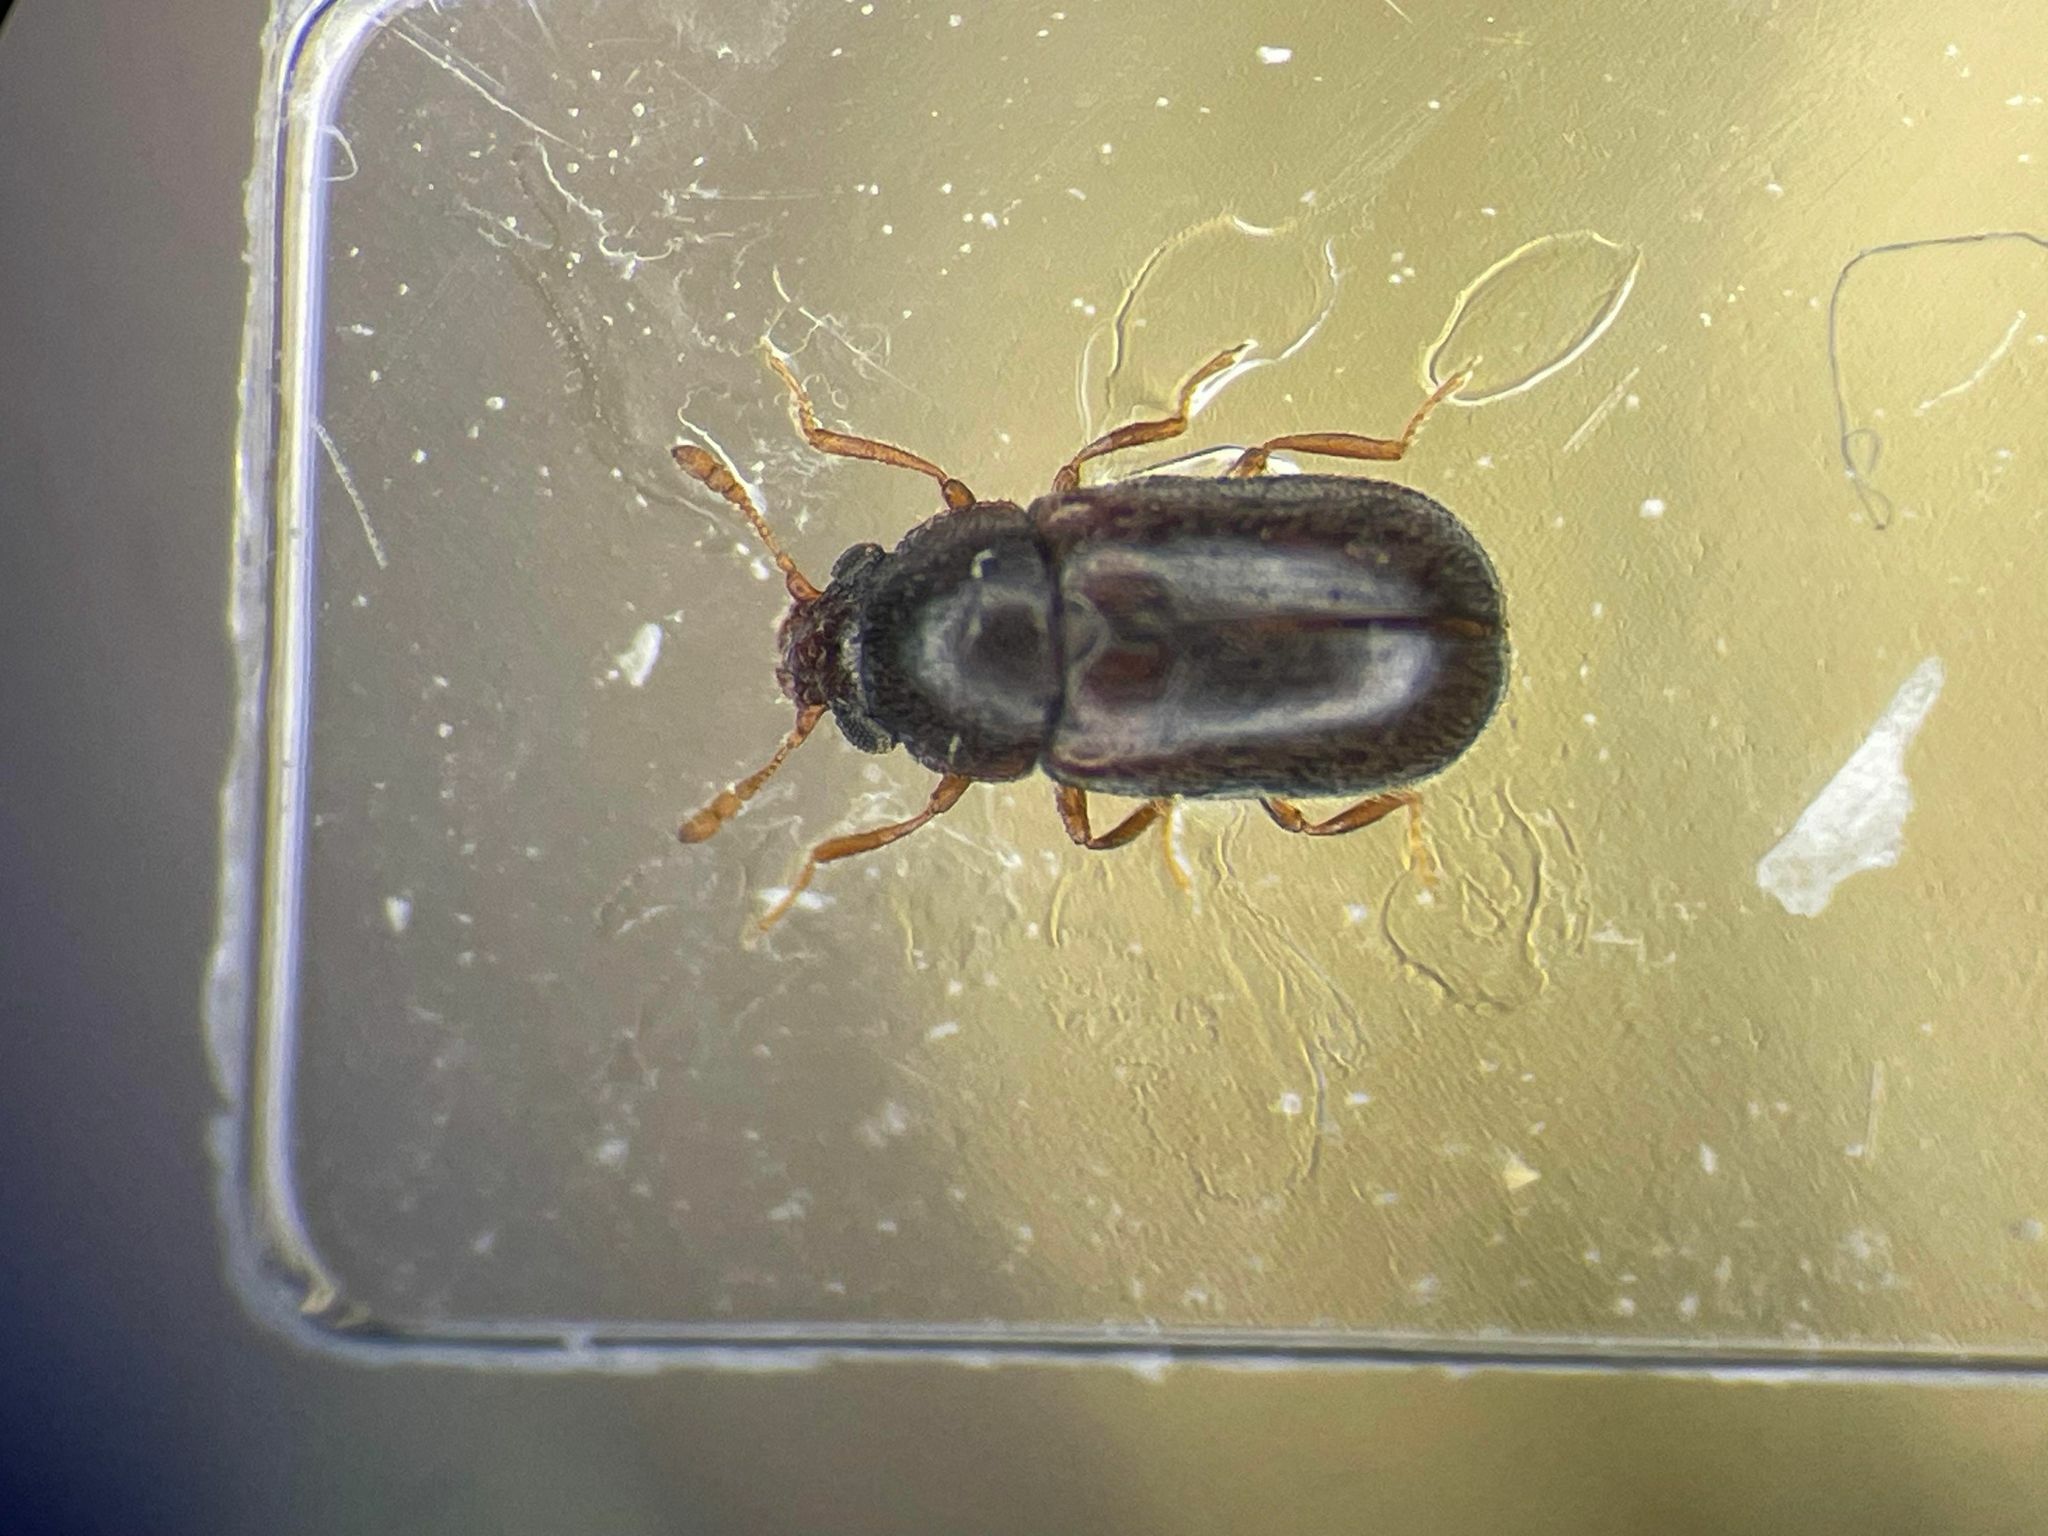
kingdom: Animalia
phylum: Arthropoda
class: Insecta
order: Coleoptera
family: Sphindidae
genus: Sphindus
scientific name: Sphindus americanus
